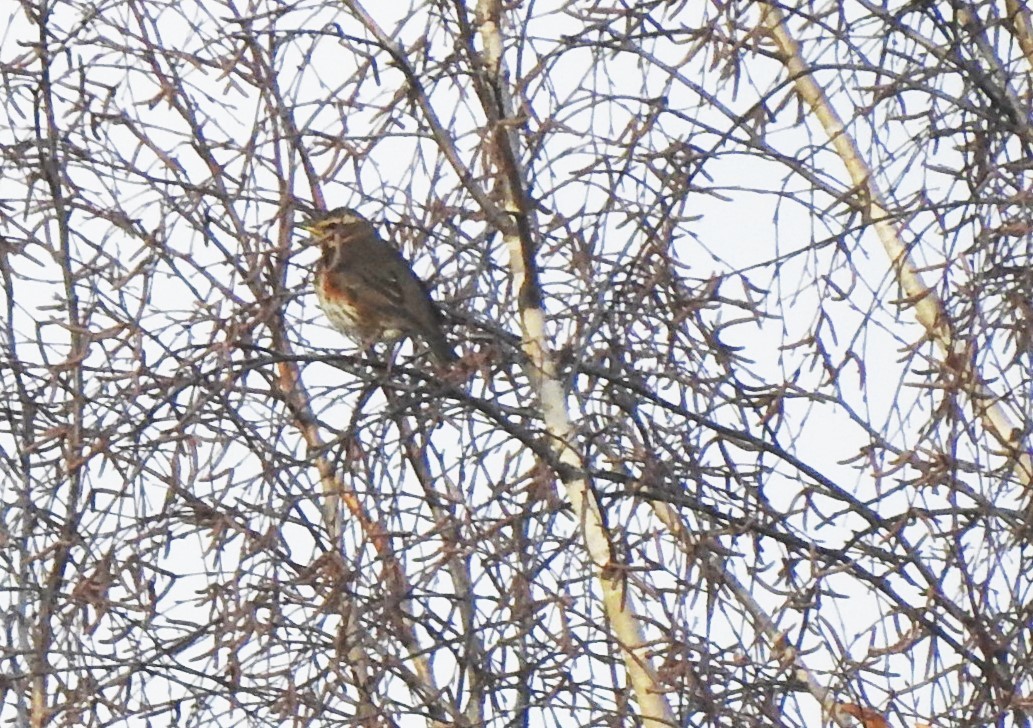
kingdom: Animalia
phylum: Chordata
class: Aves
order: Passeriformes
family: Turdidae
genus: Turdus
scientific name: Turdus iliacus
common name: Redwing
